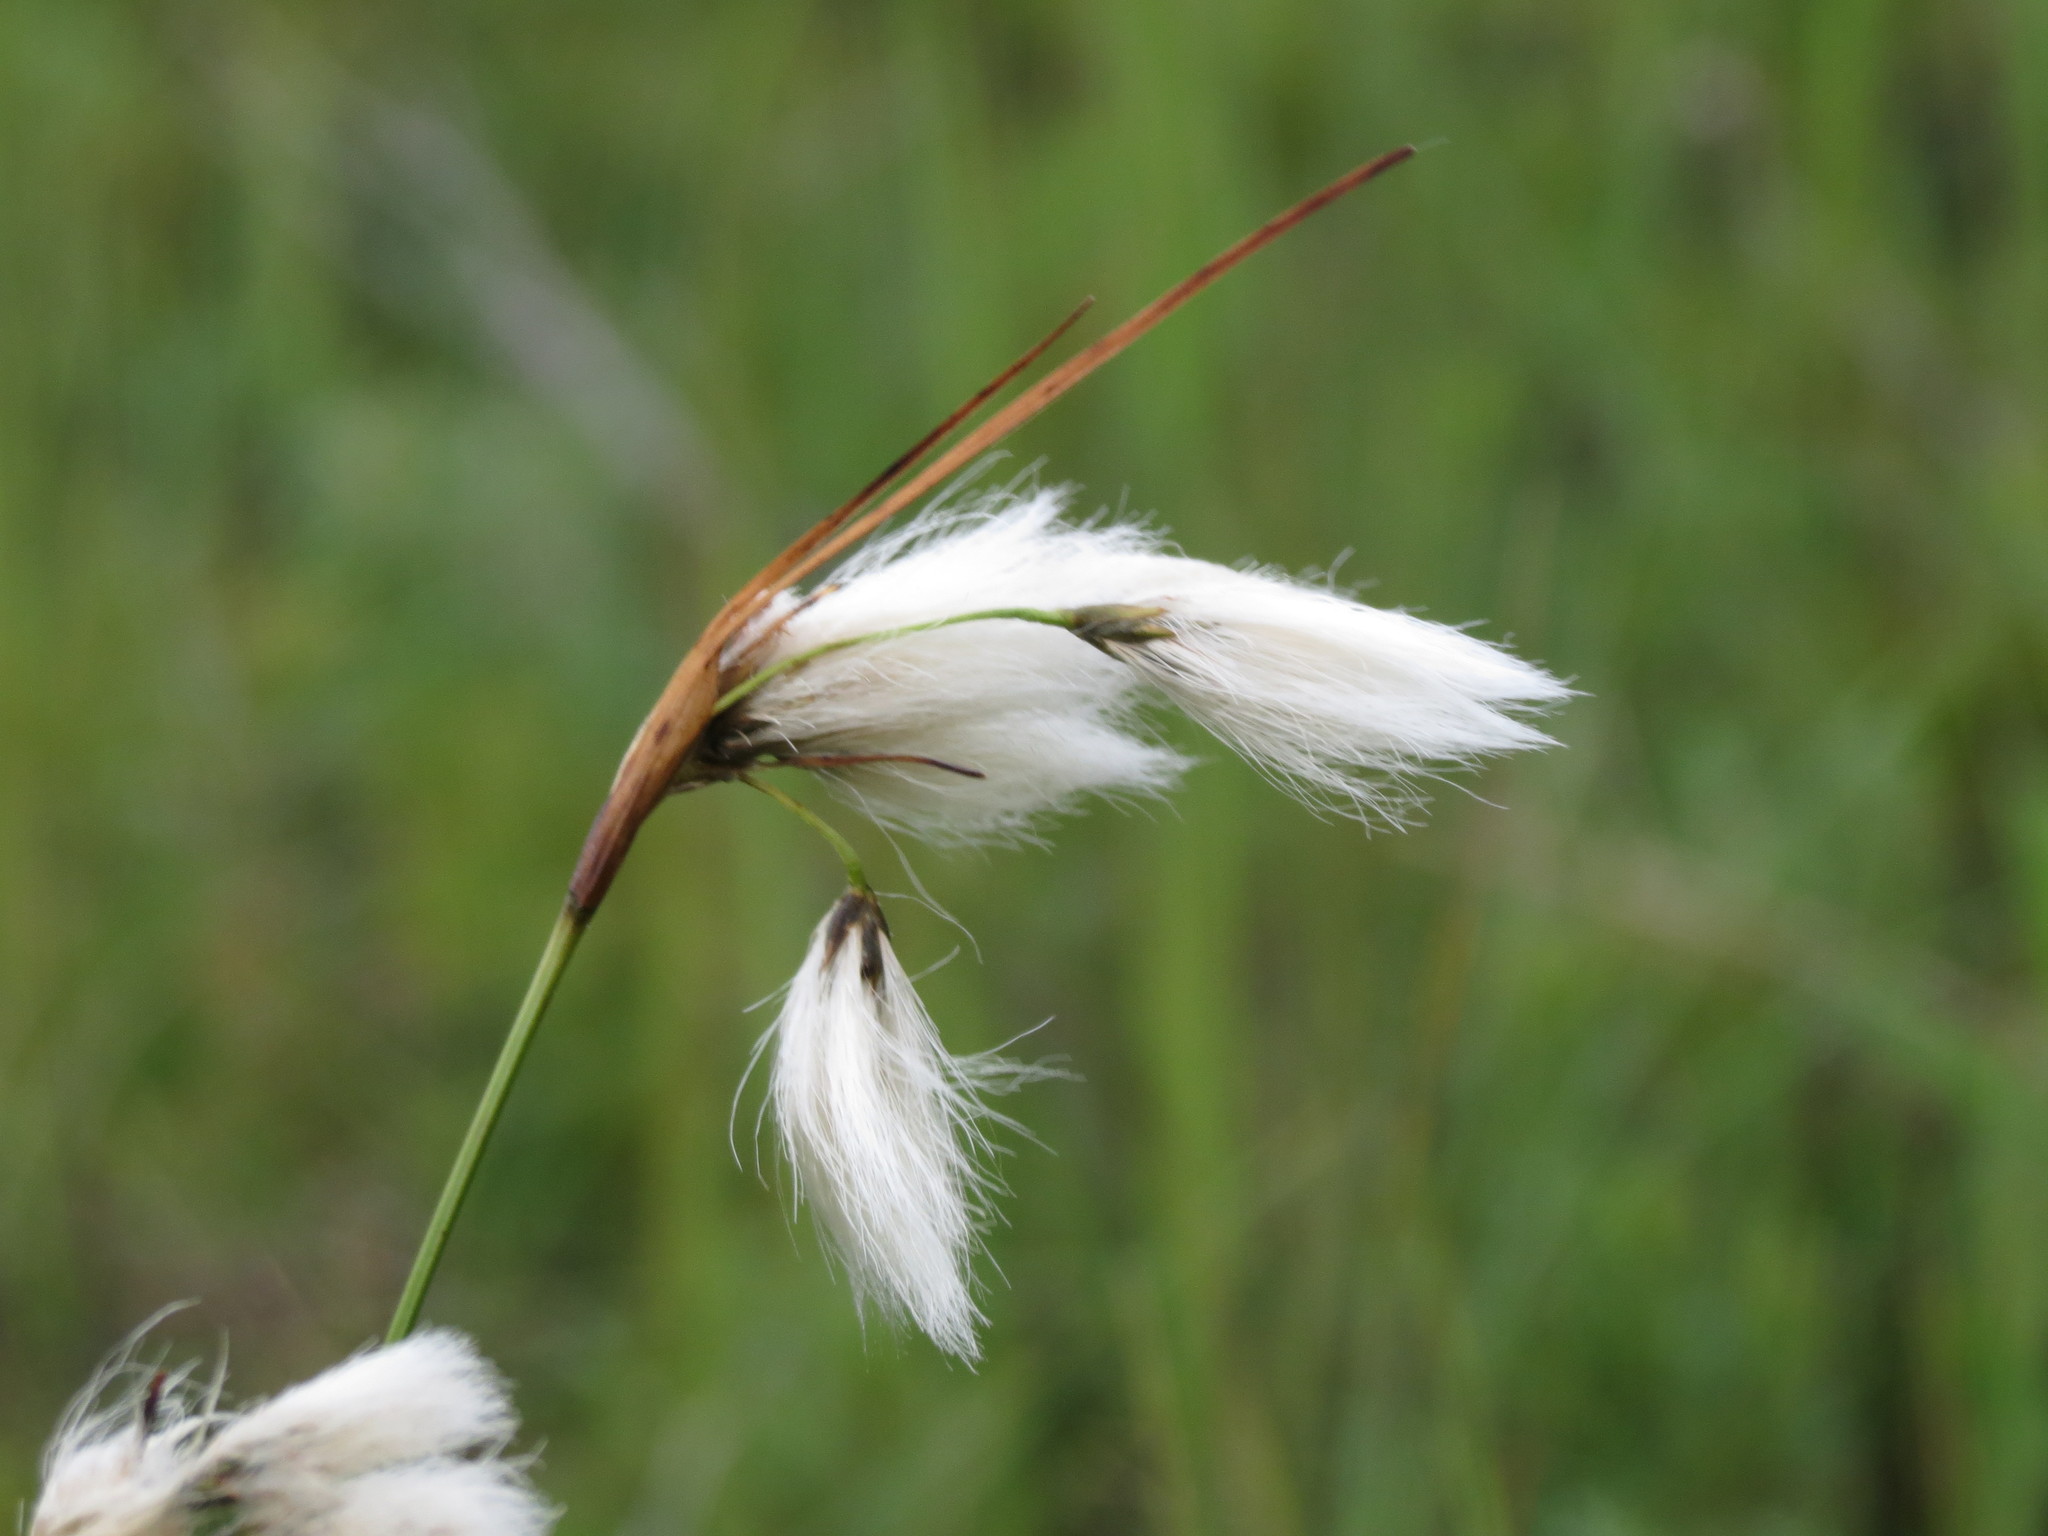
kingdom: Plantae
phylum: Tracheophyta
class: Liliopsida
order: Poales
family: Cyperaceae
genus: Eriophorum
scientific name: Eriophorum viridicarinatum
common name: Green-keeled cottongrass
